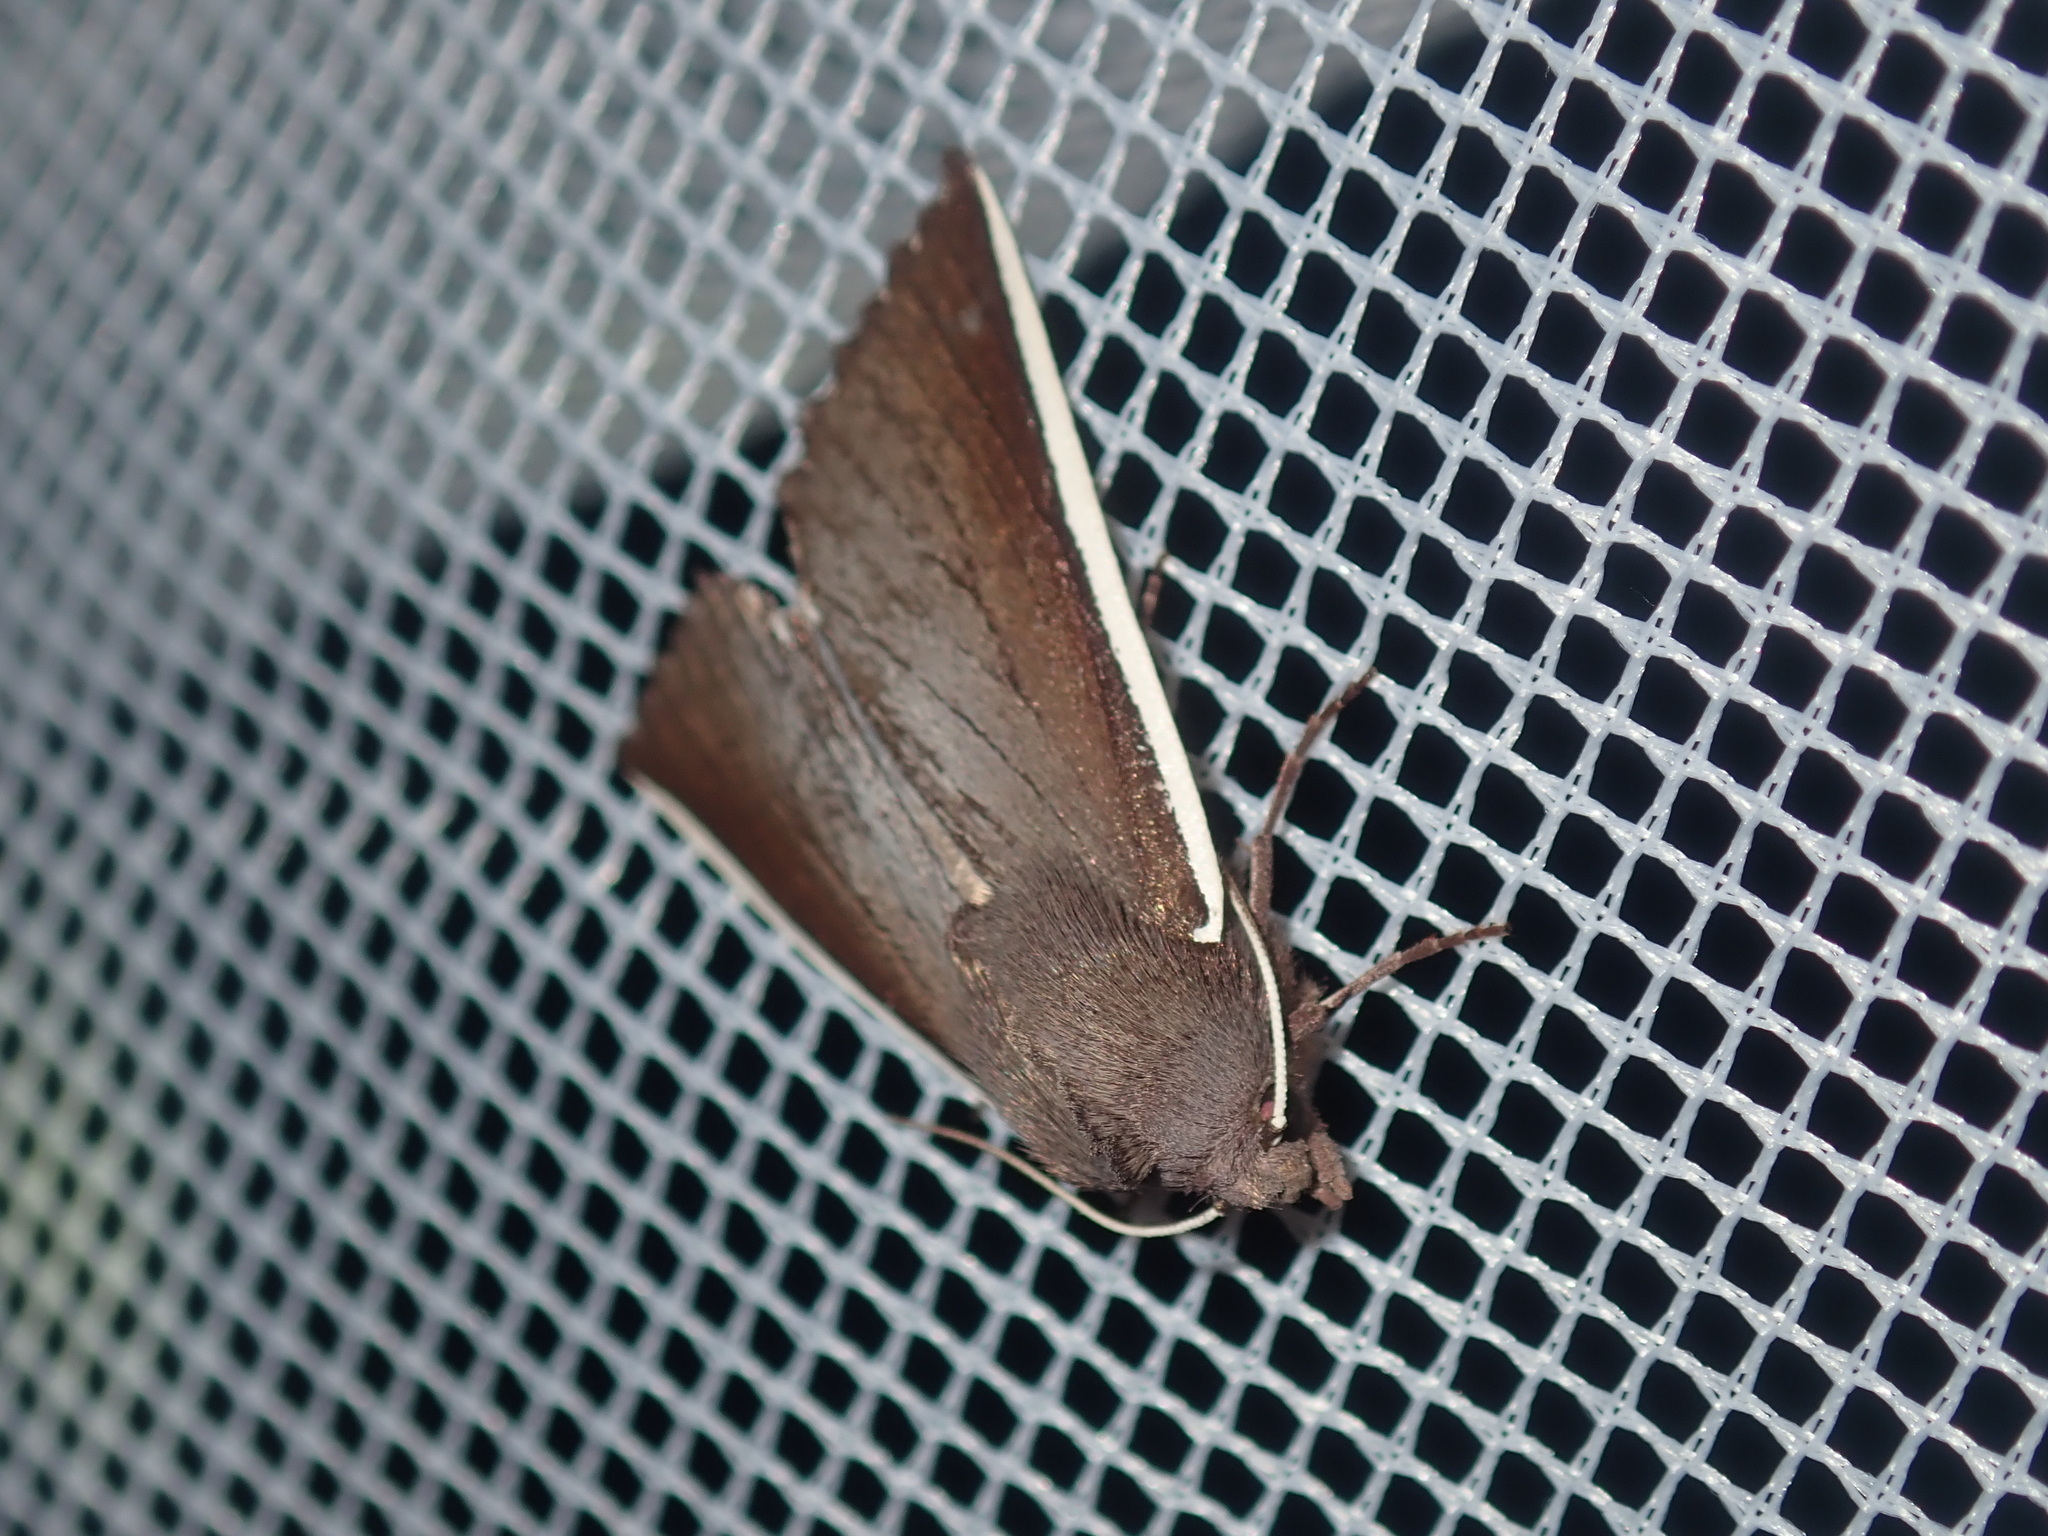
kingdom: Animalia
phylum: Arthropoda
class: Insecta
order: Lepidoptera
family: Geometridae
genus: Capusa
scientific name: Capusa chionopleura
